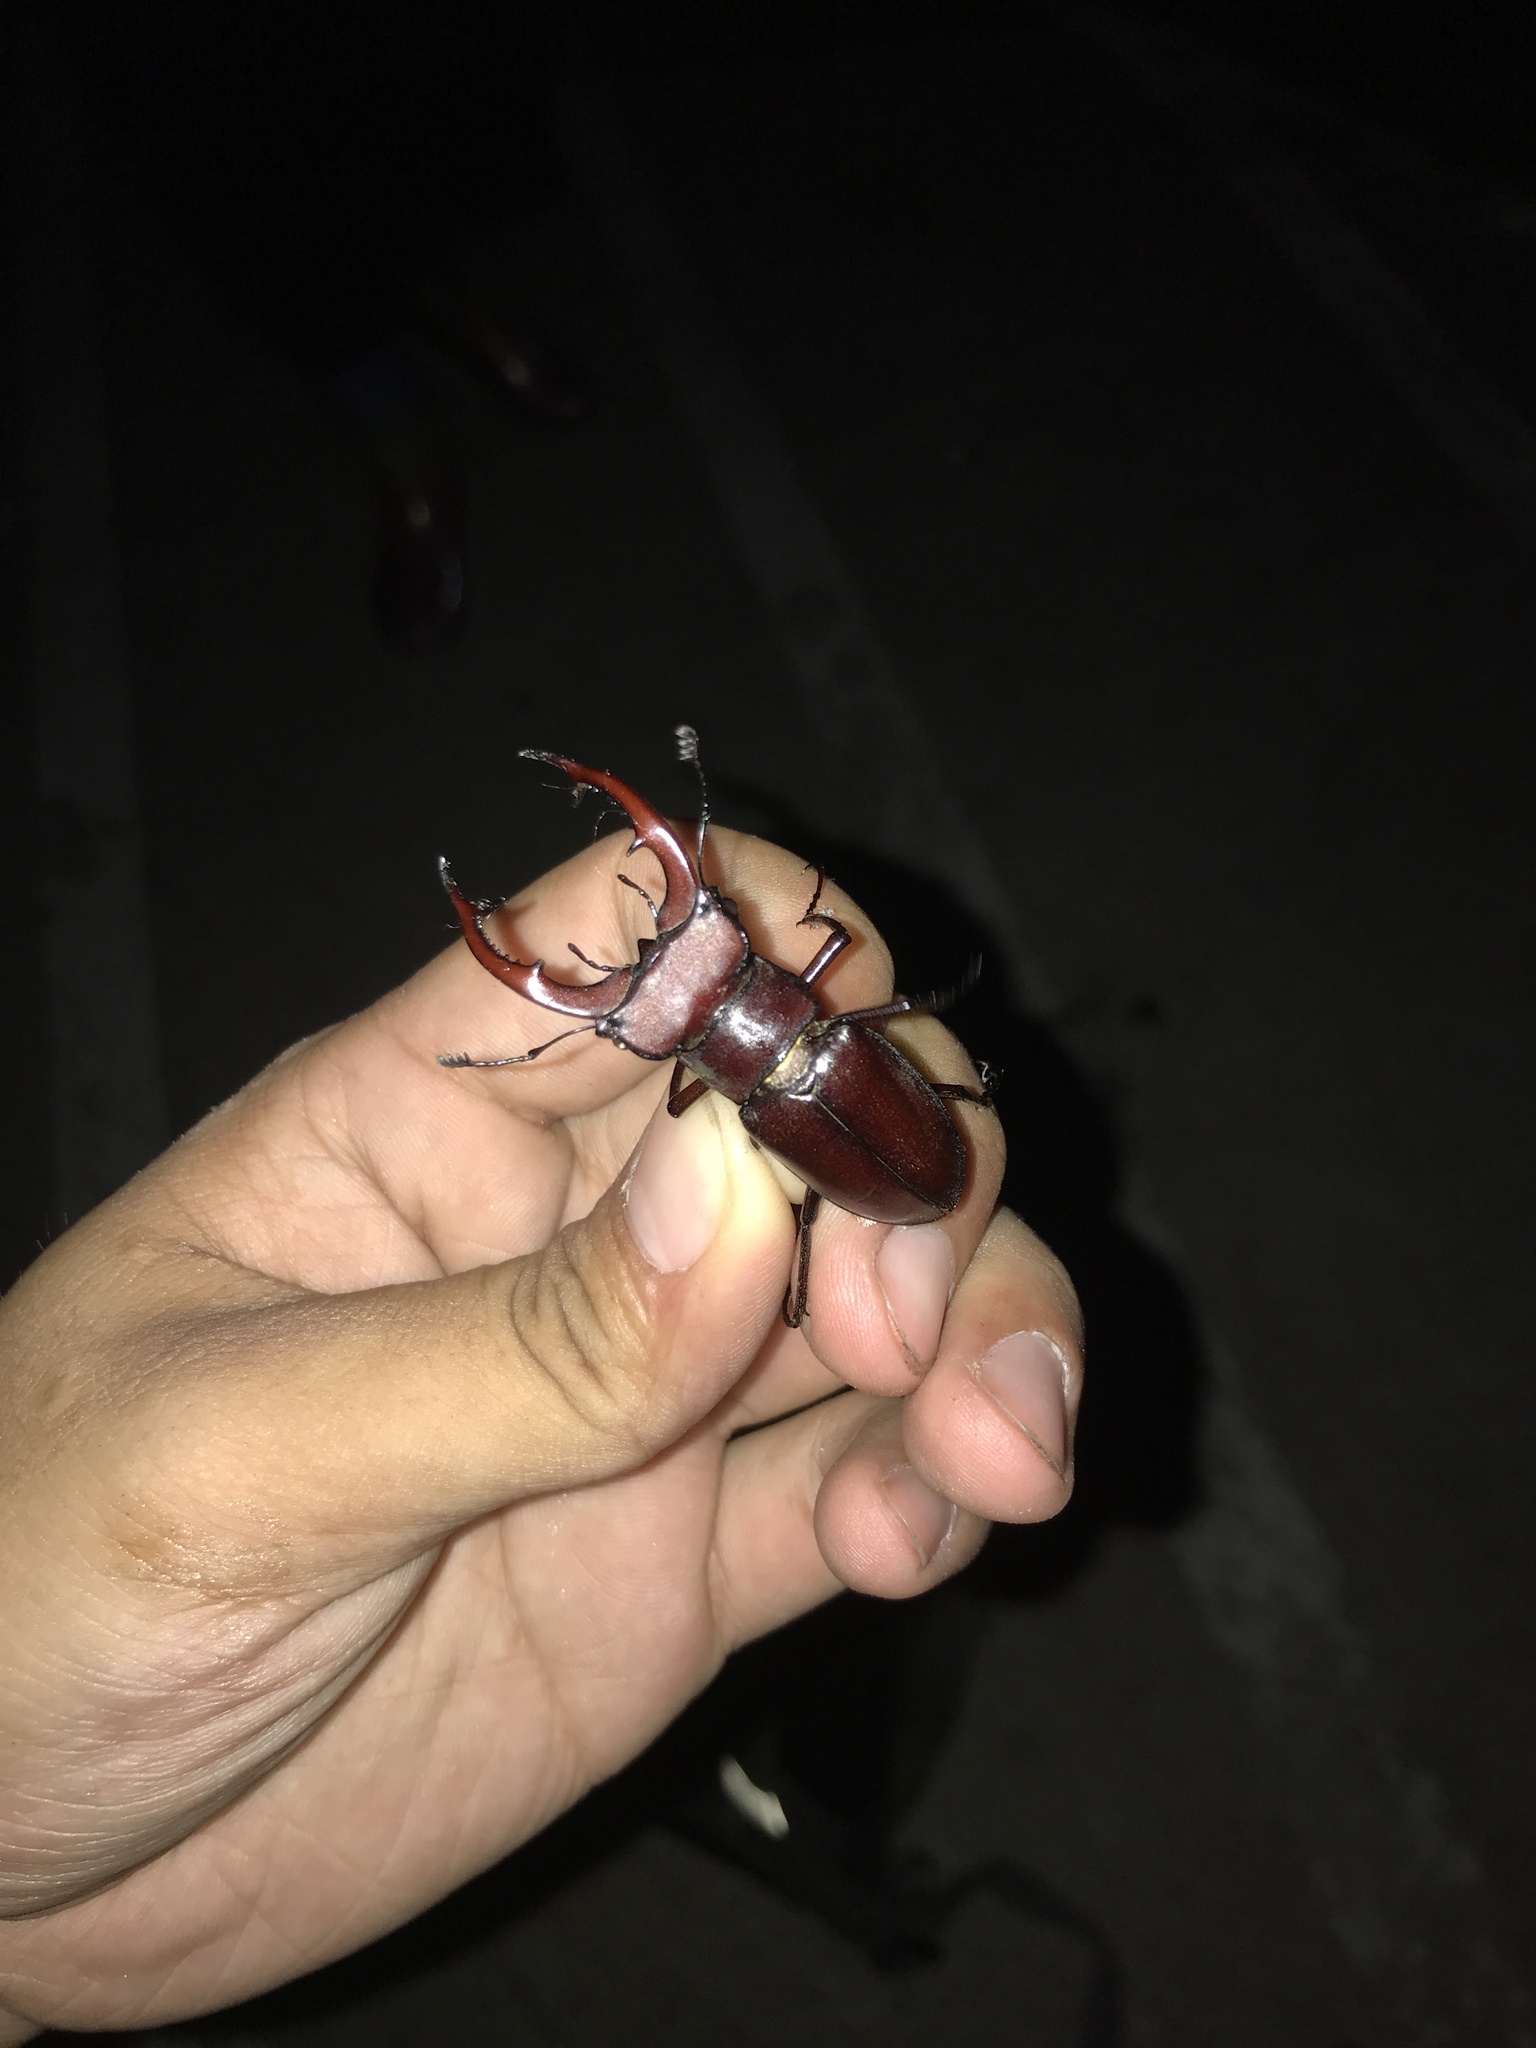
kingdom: Animalia
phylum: Arthropoda
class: Insecta
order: Coleoptera
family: Lucanidae
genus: Lucanus
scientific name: Lucanus elaphus
